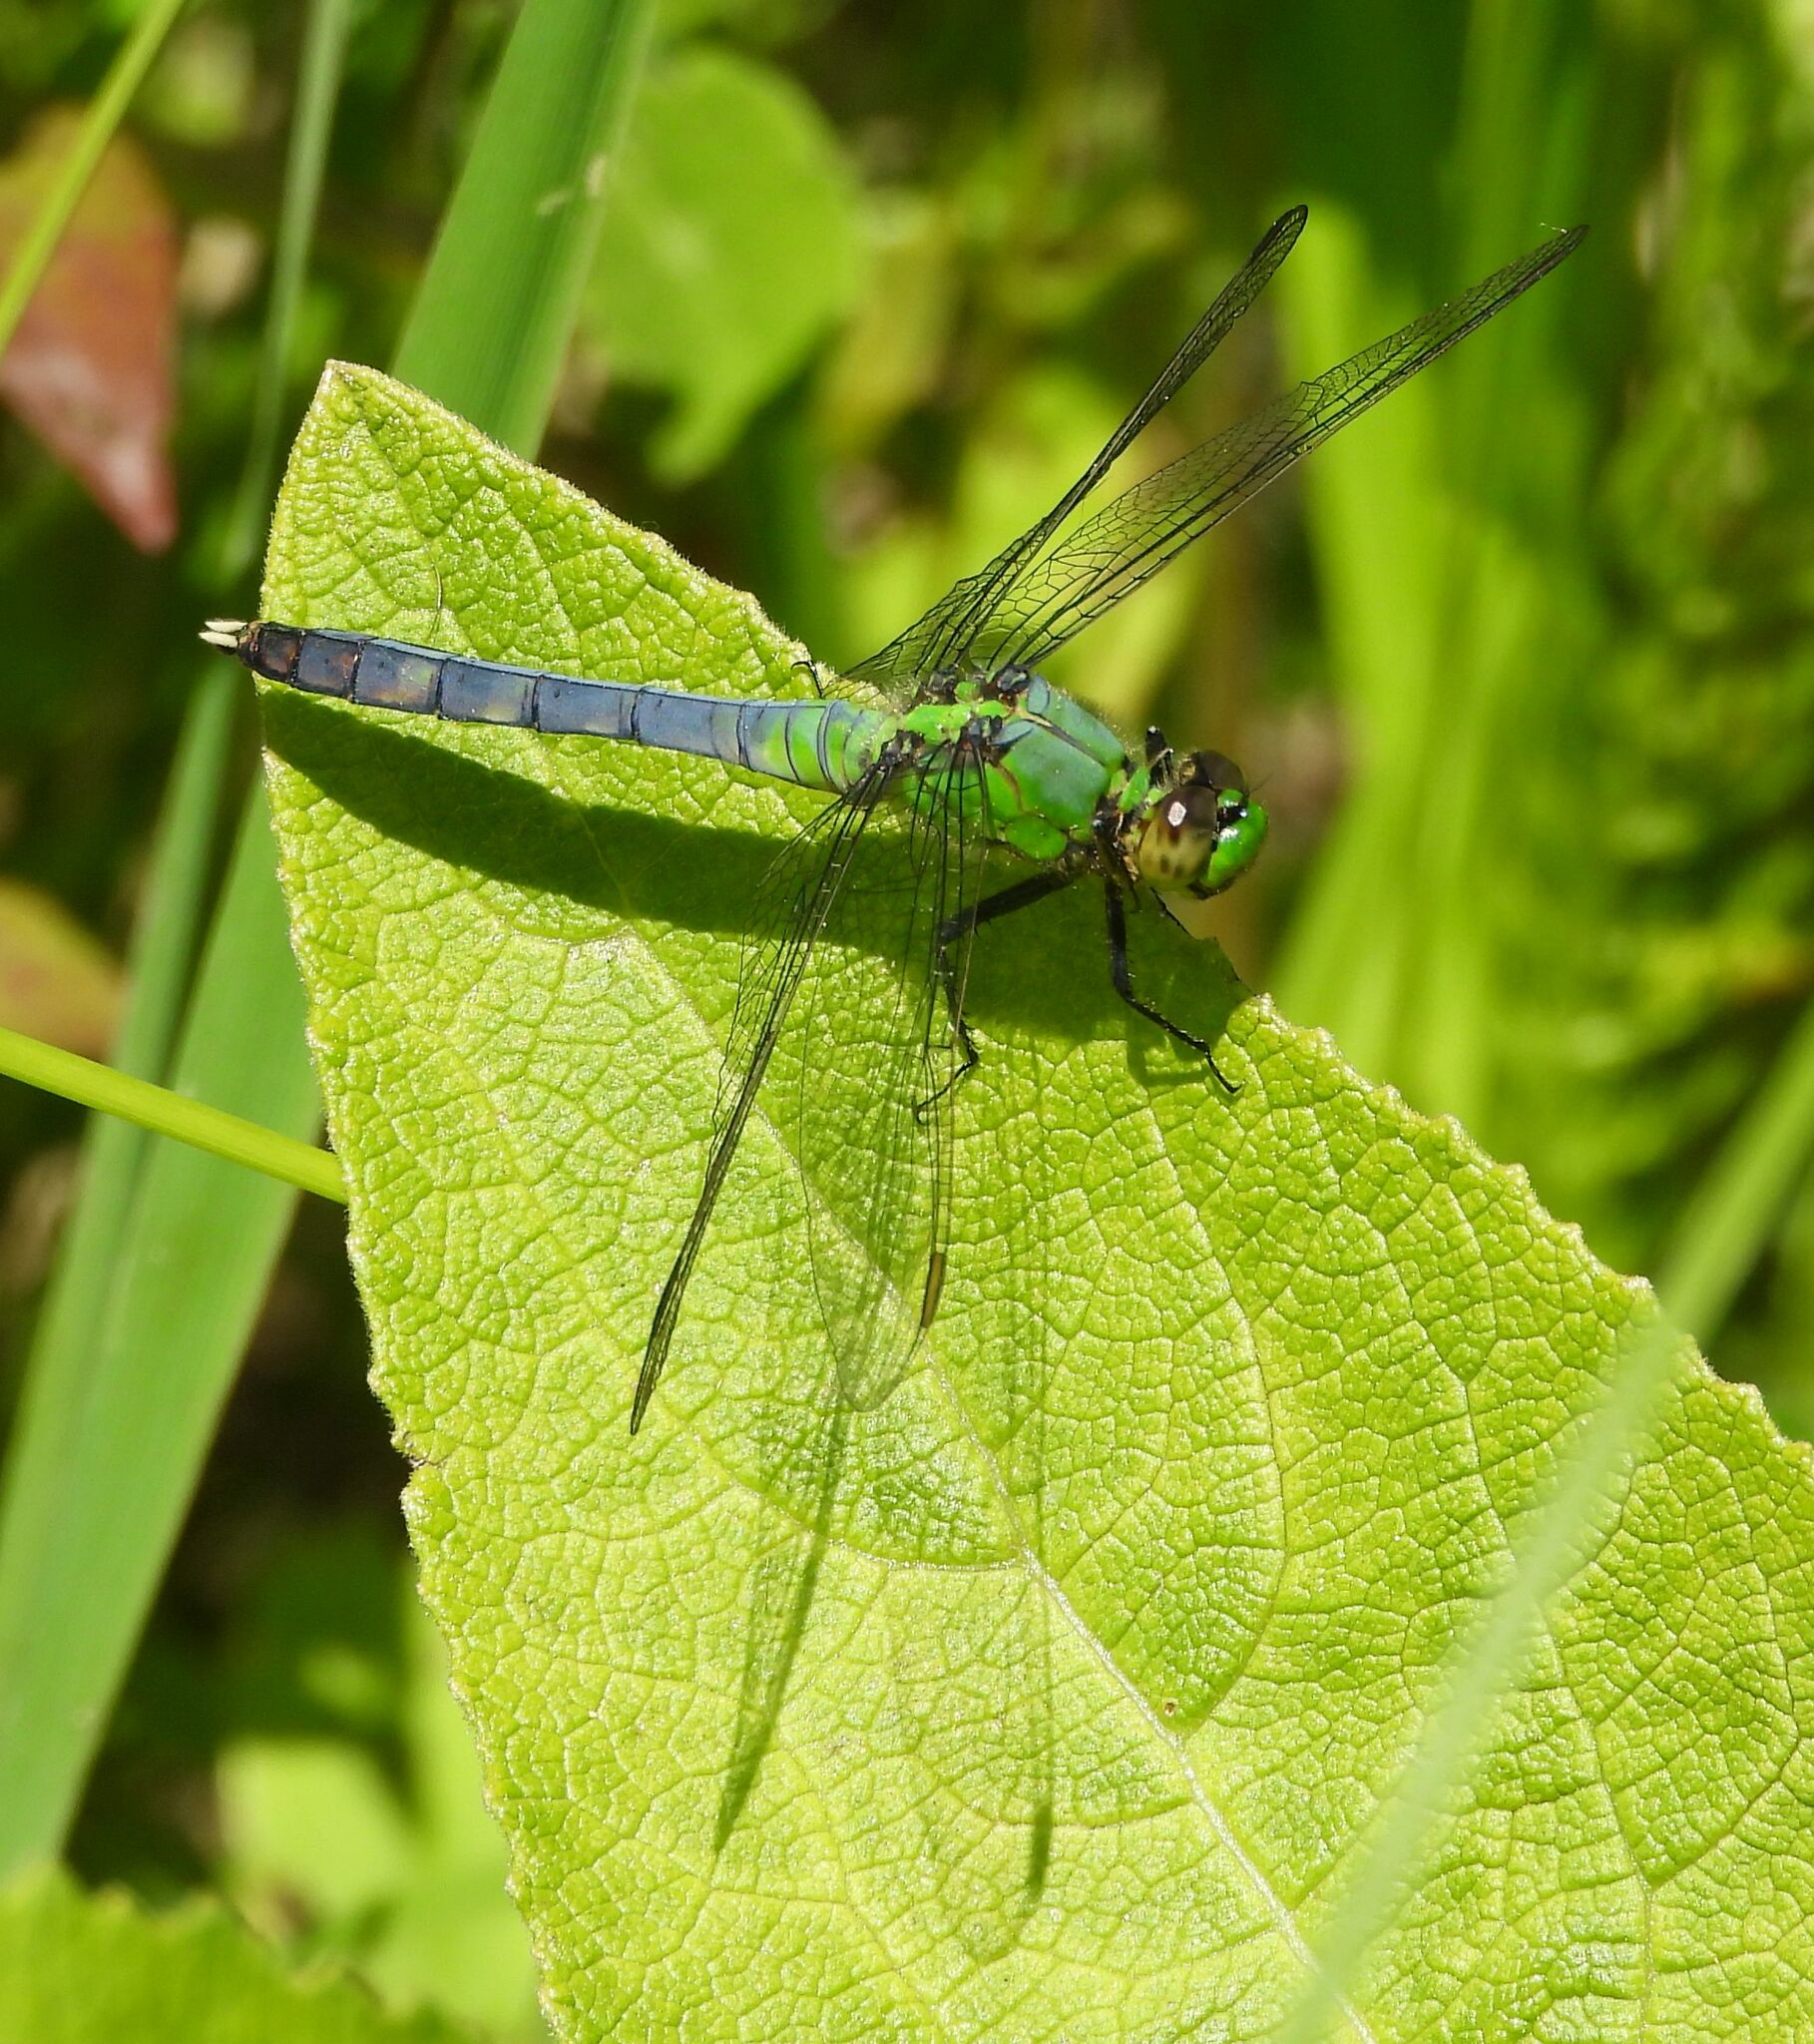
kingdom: Animalia
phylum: Arthropoda
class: Insecta
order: Odonata
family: Libellulidae
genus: Erythemis
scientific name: Erythemis simplicicollis
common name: Eastern pondhawk
